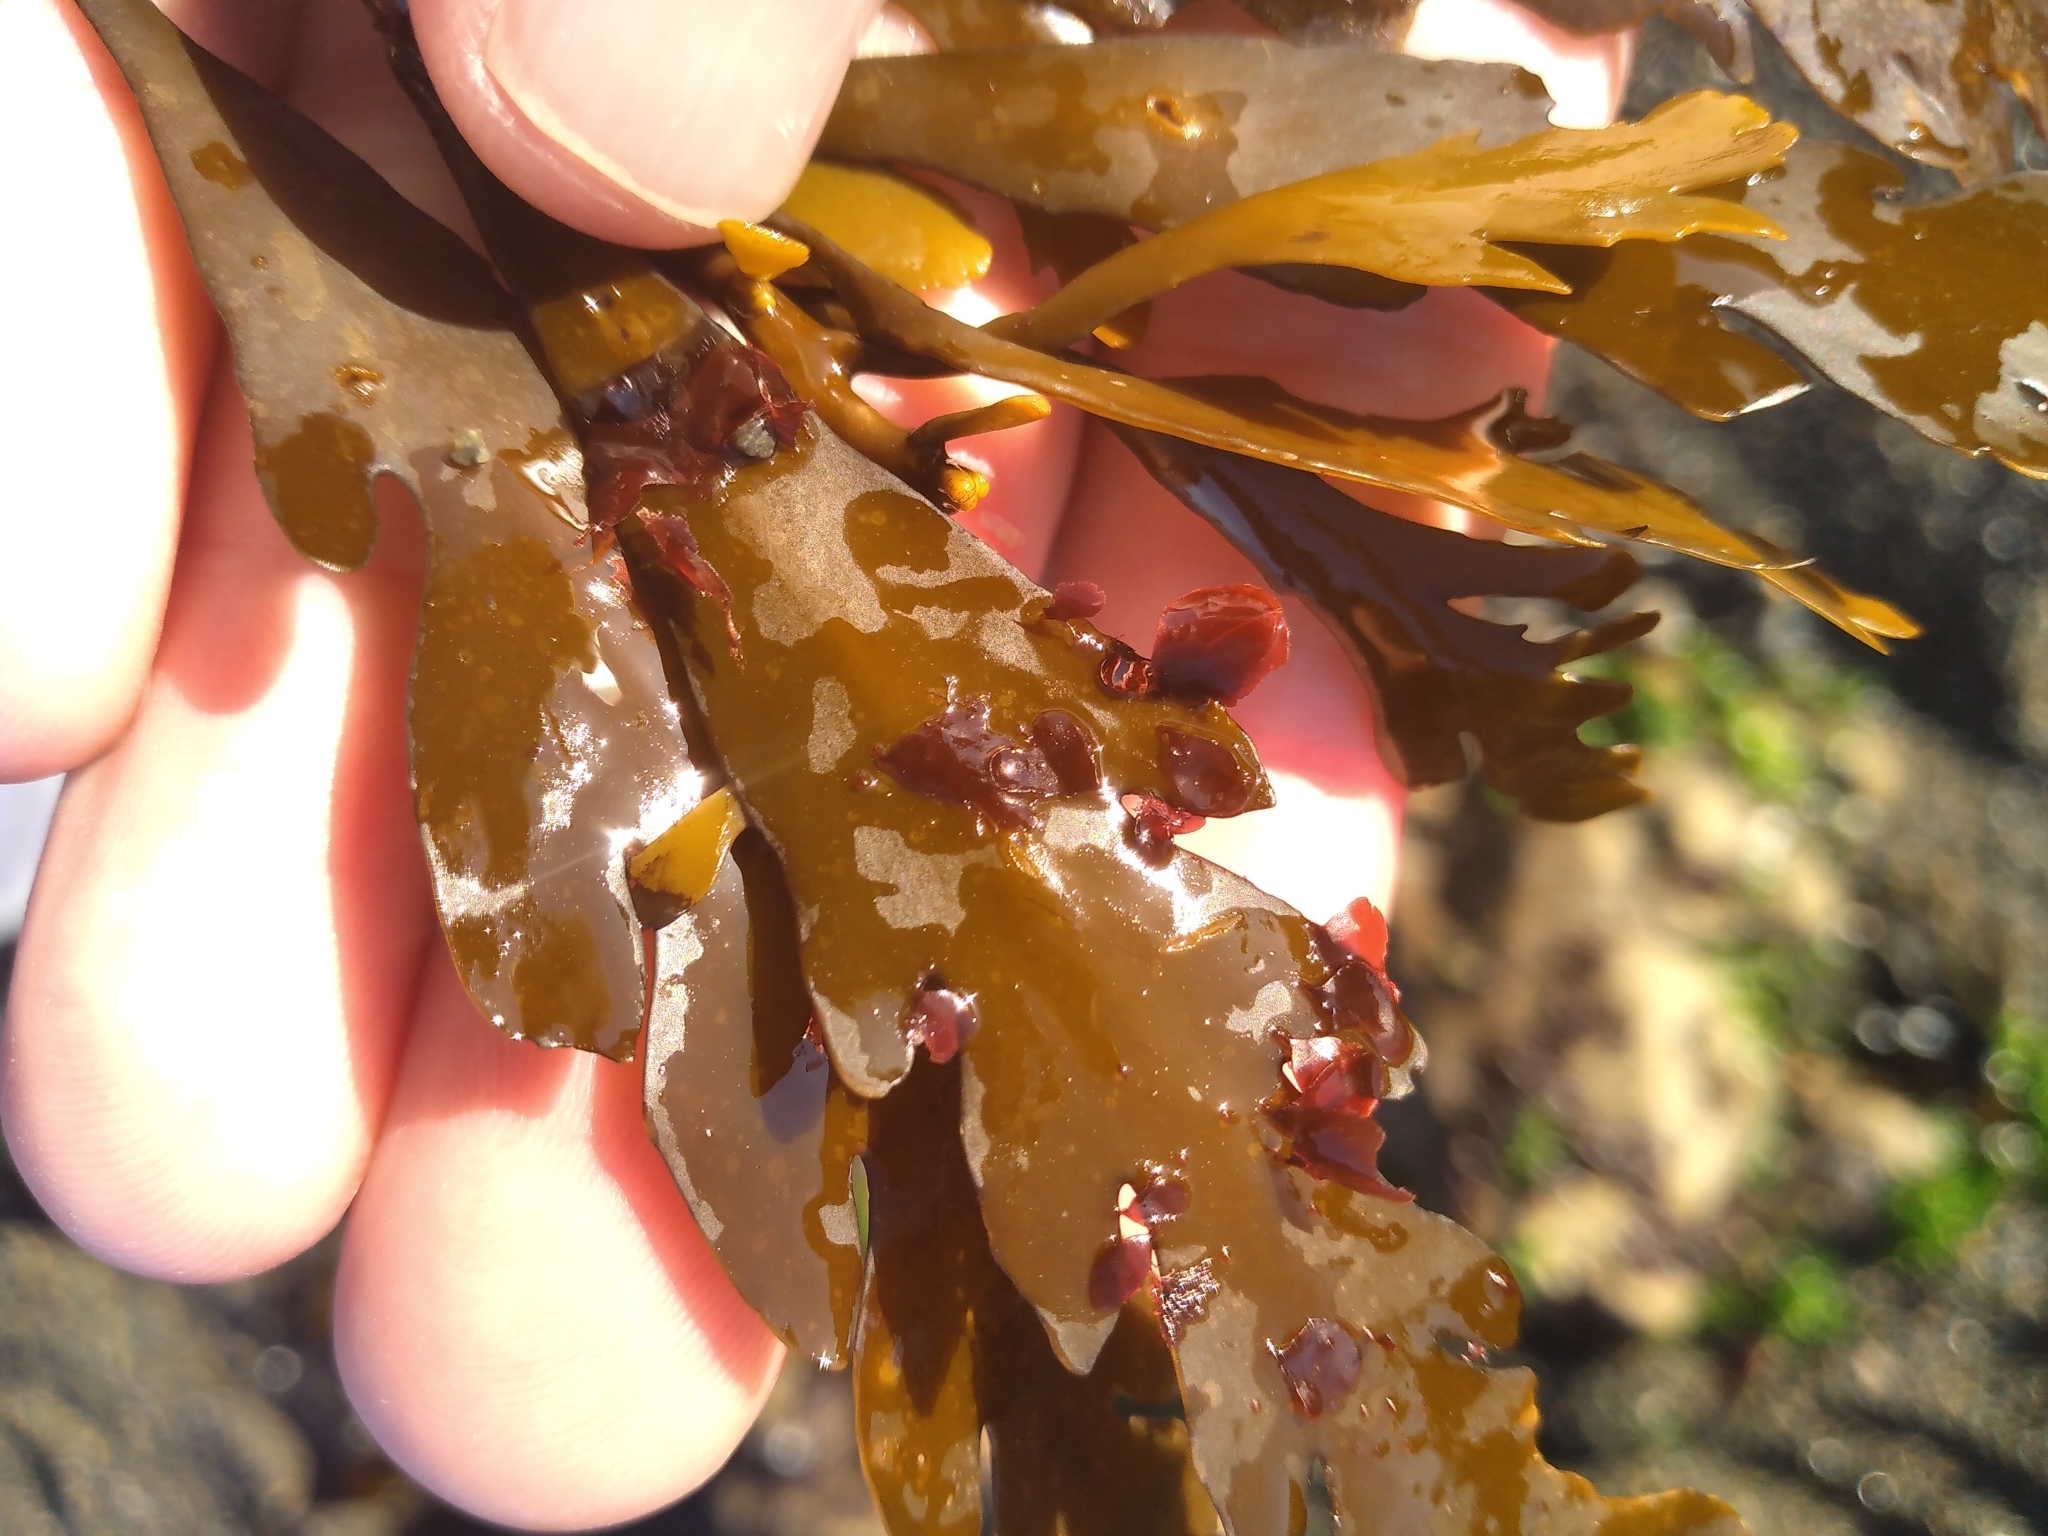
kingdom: Plantae
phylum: Rhodophyta
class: Florideophyceae
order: Ceramiales
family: Delesseriaceae
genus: Nancythalia
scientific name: Nancythalia humilis
